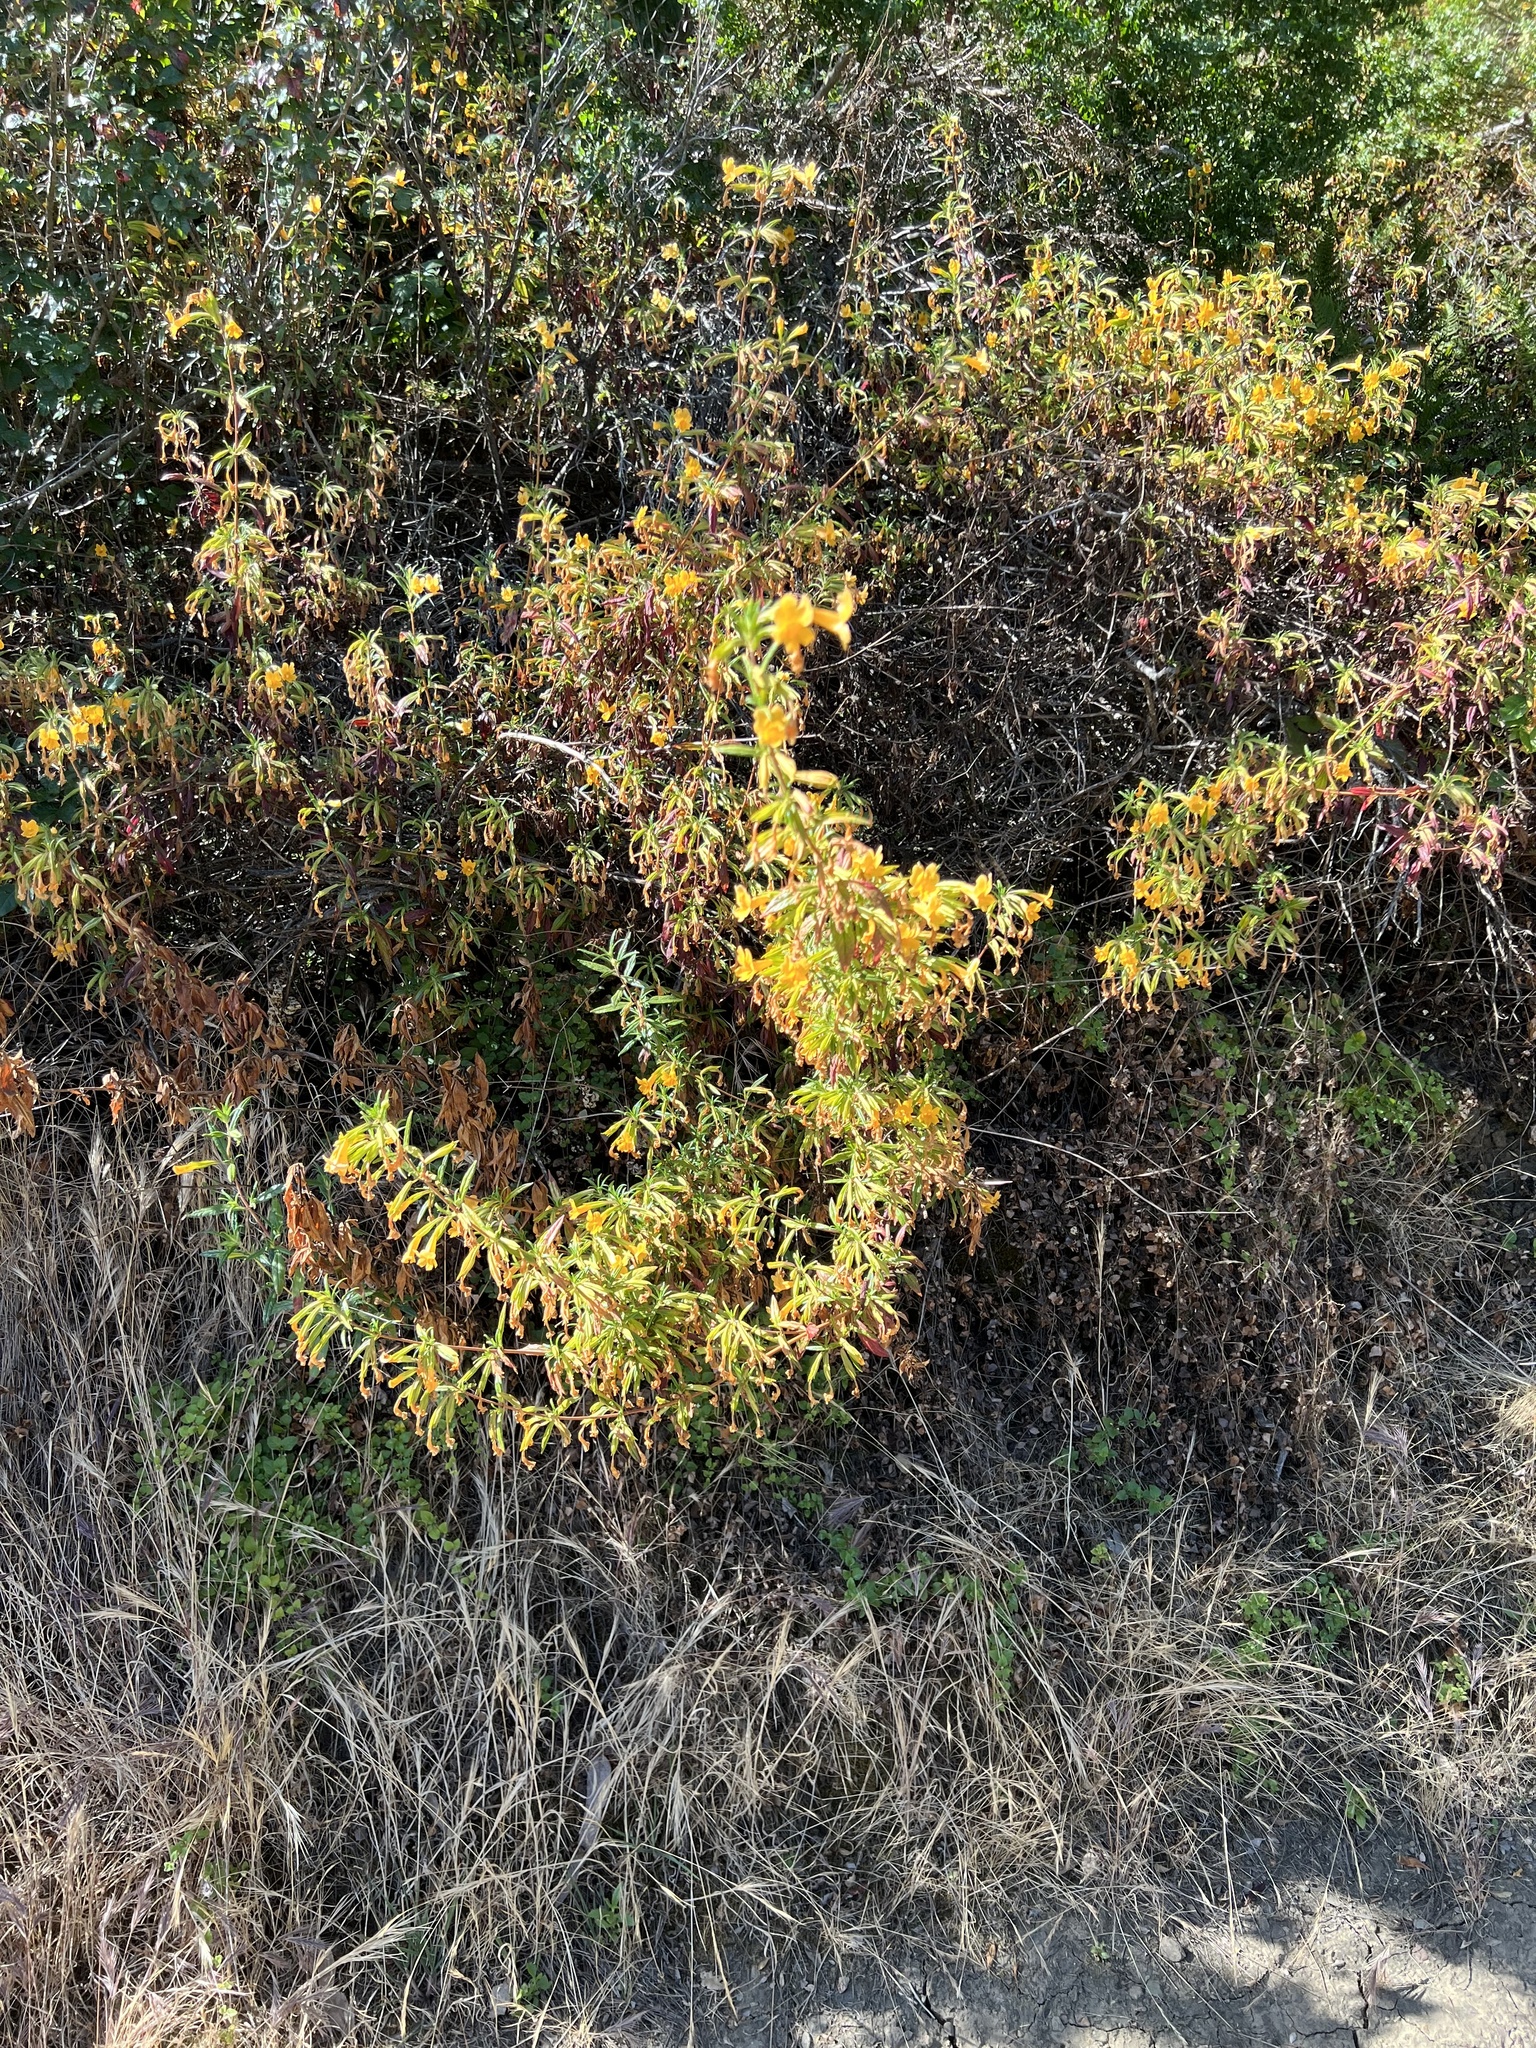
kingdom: Plantae
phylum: Tracheophyta
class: Magnoliopsida
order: Lamiales
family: Phrymaceae
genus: Diplacus
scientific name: Diplacus aurantiacus
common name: Bush monkey-flower
